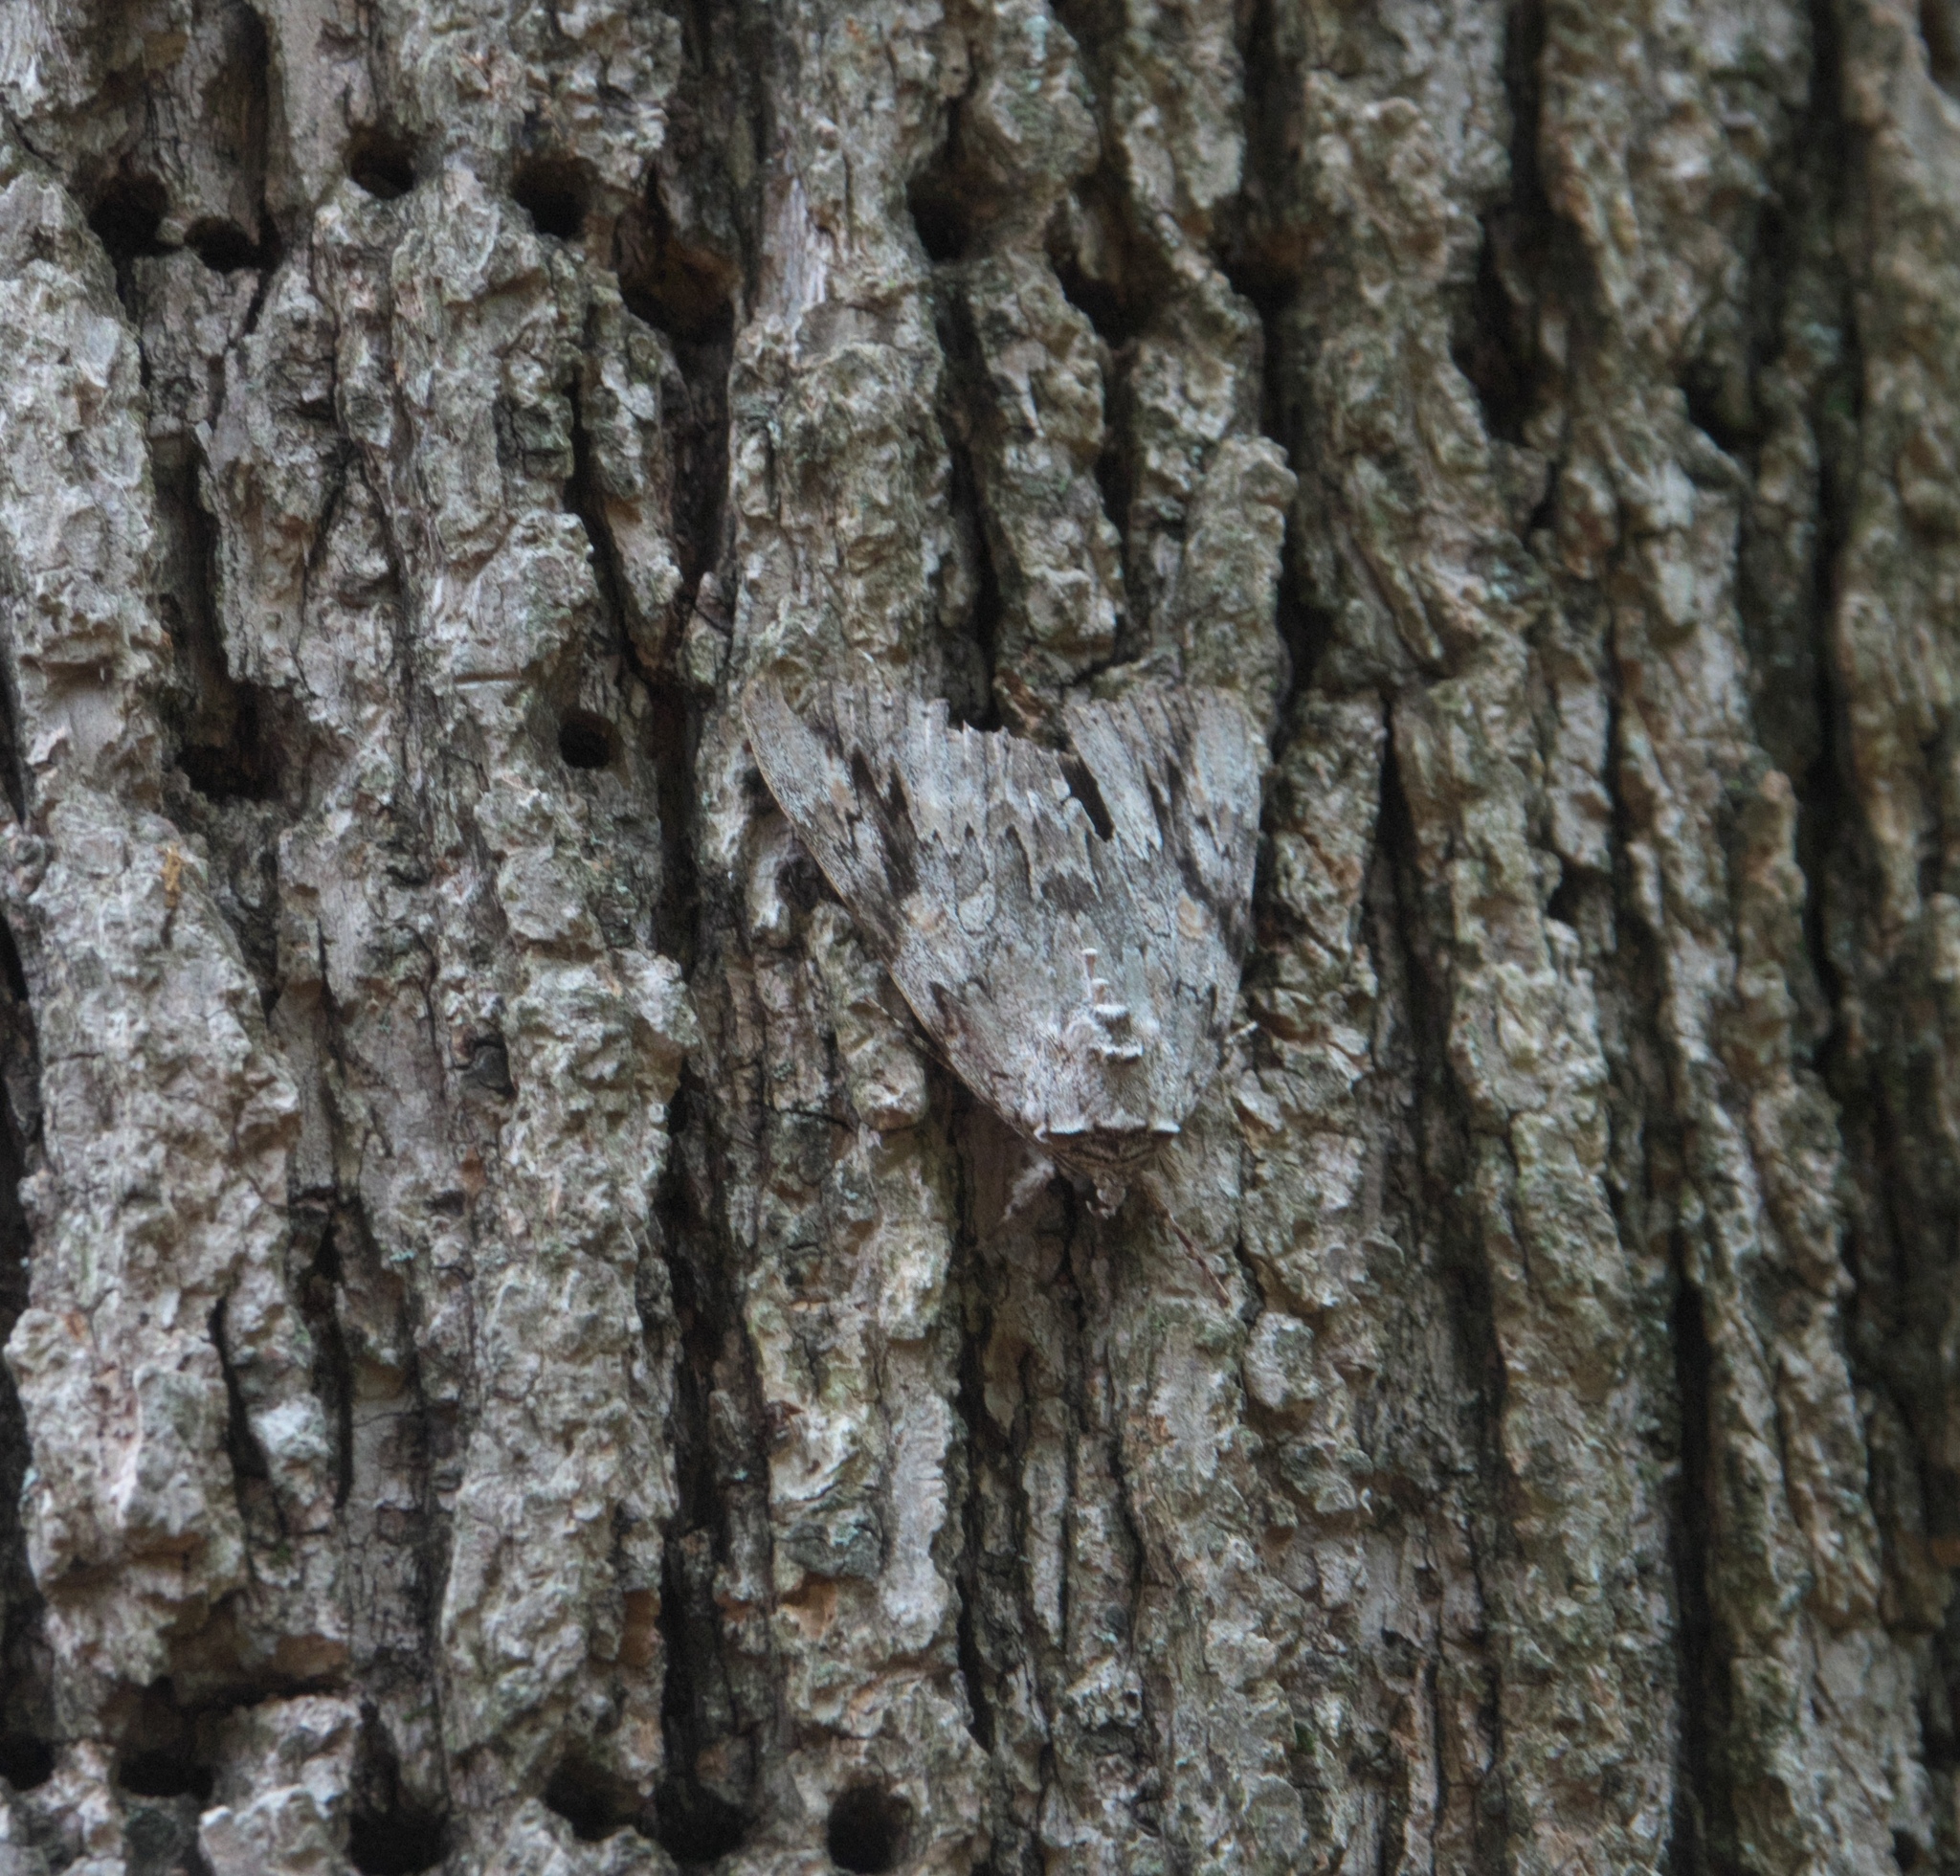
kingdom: Animalia
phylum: Arthropoda
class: Insecta
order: Lepidoptera
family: Erebidae
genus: Catocala
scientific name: Catocala maestosa
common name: Sad underwing
